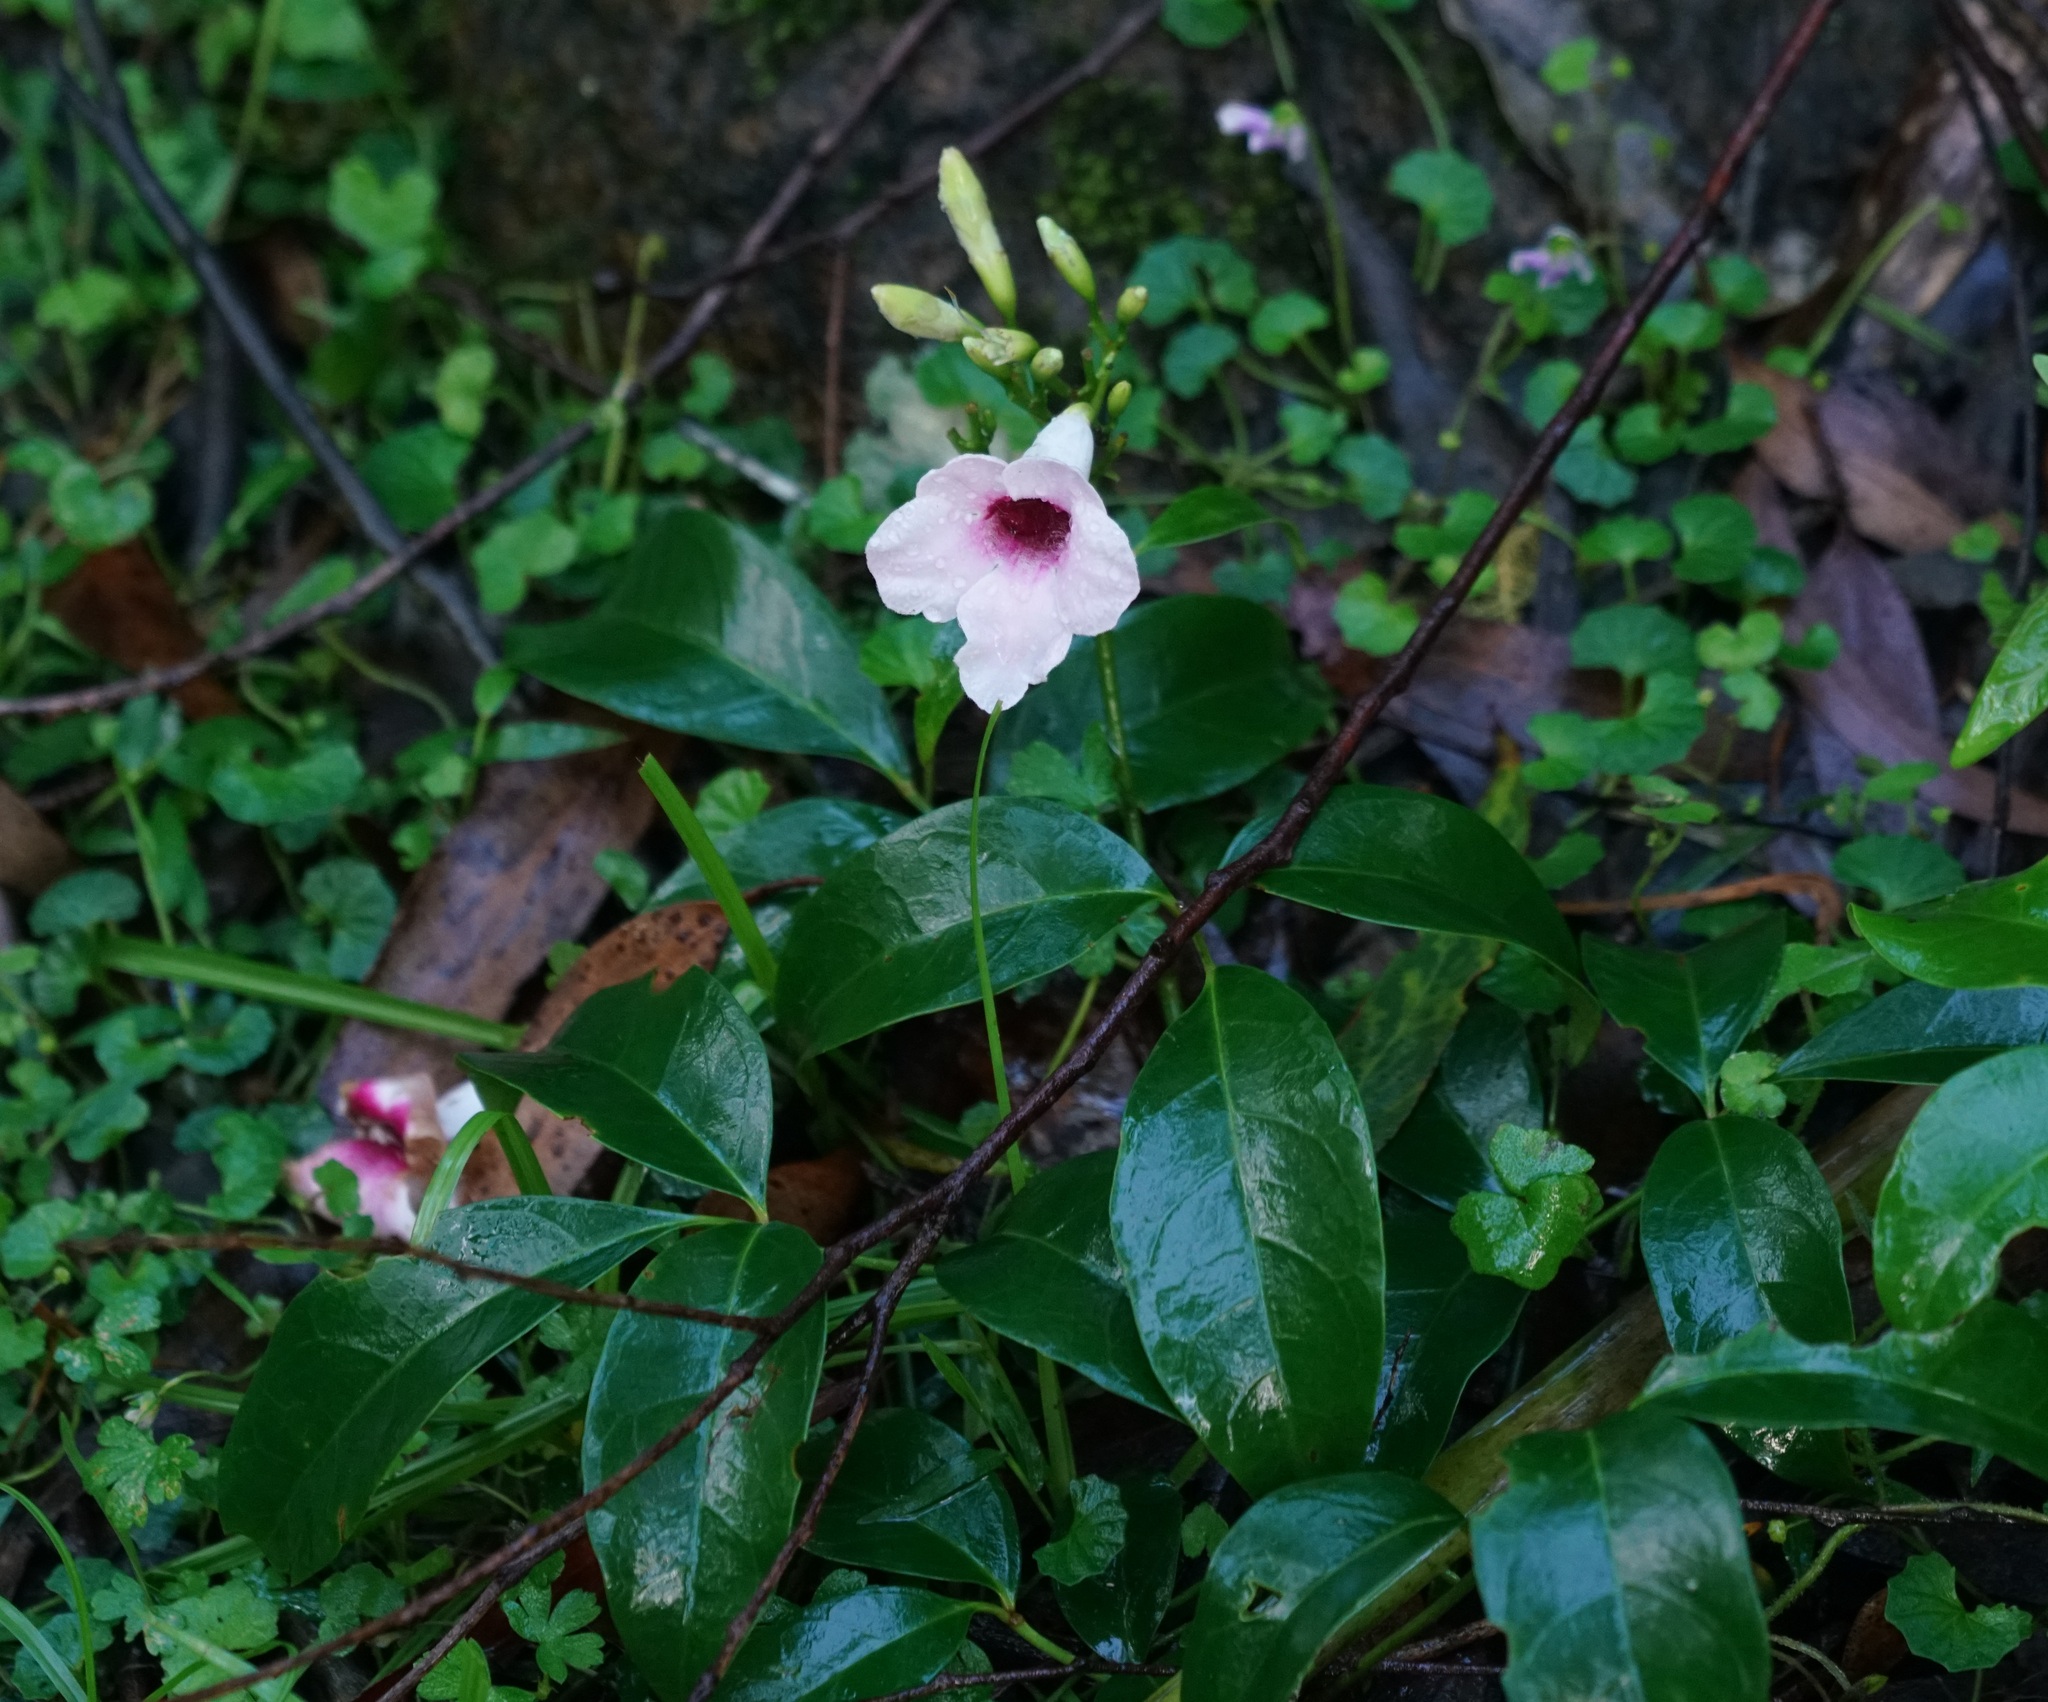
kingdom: Plantae
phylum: Tracheophyta
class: Magnoliopsida
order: Lamiales
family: Bignoniaceae
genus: Pandorea
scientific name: Pandorea jasminoides
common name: Bowerplant
